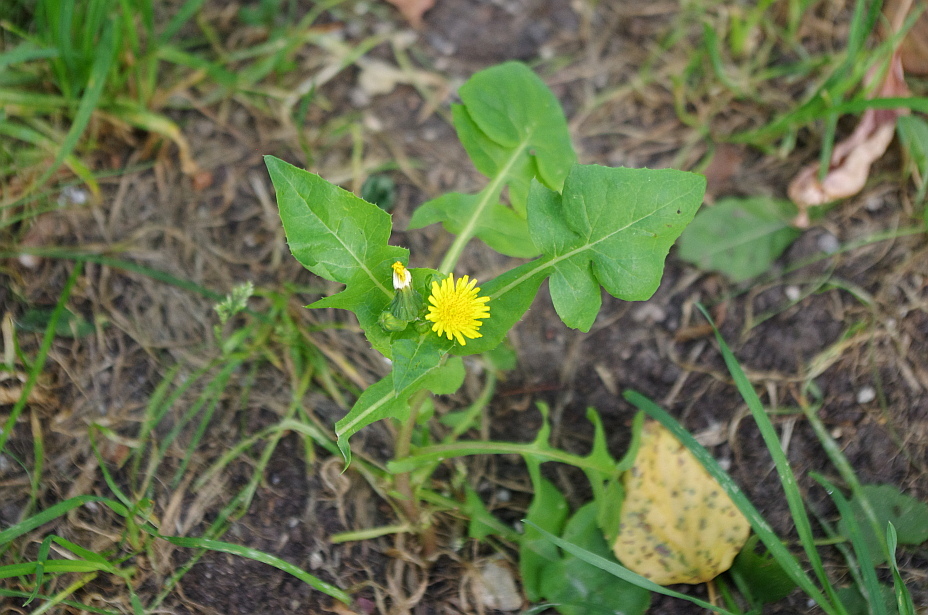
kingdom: Plantae
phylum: Tracheophyta
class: Magnoliopsida
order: Asterales
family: Asteraceae
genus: Sonchus
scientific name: Sonchus oleraceus
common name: Common sowthistle
